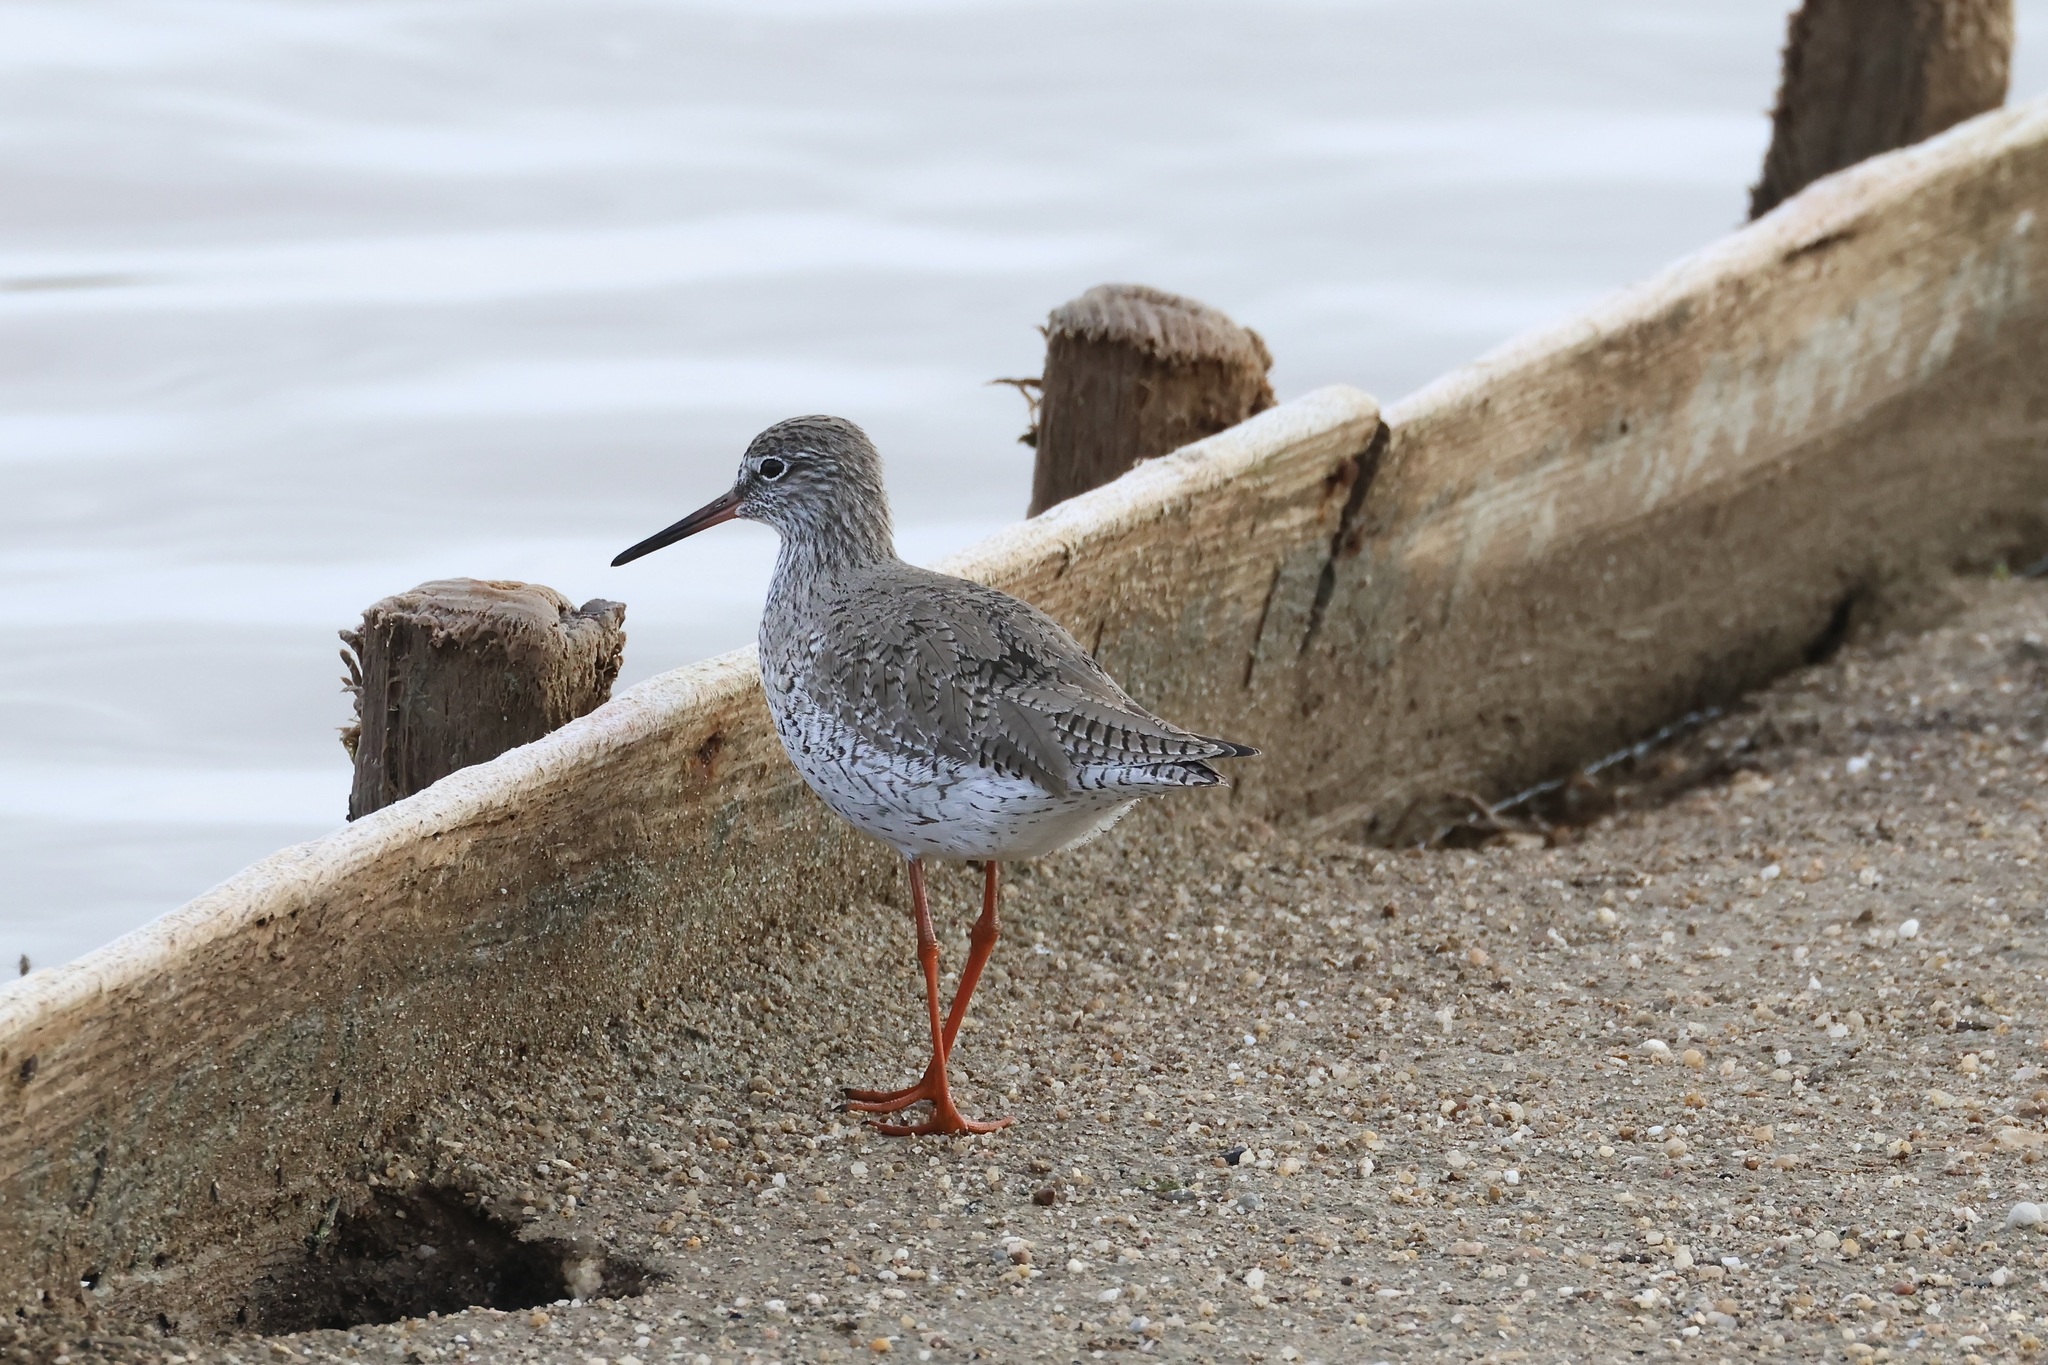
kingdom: Animalia
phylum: Chordata
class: Aves
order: Charadriiformes
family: Scolopacidae
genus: Tringa
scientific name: Tringa totanus
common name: Common redshank
